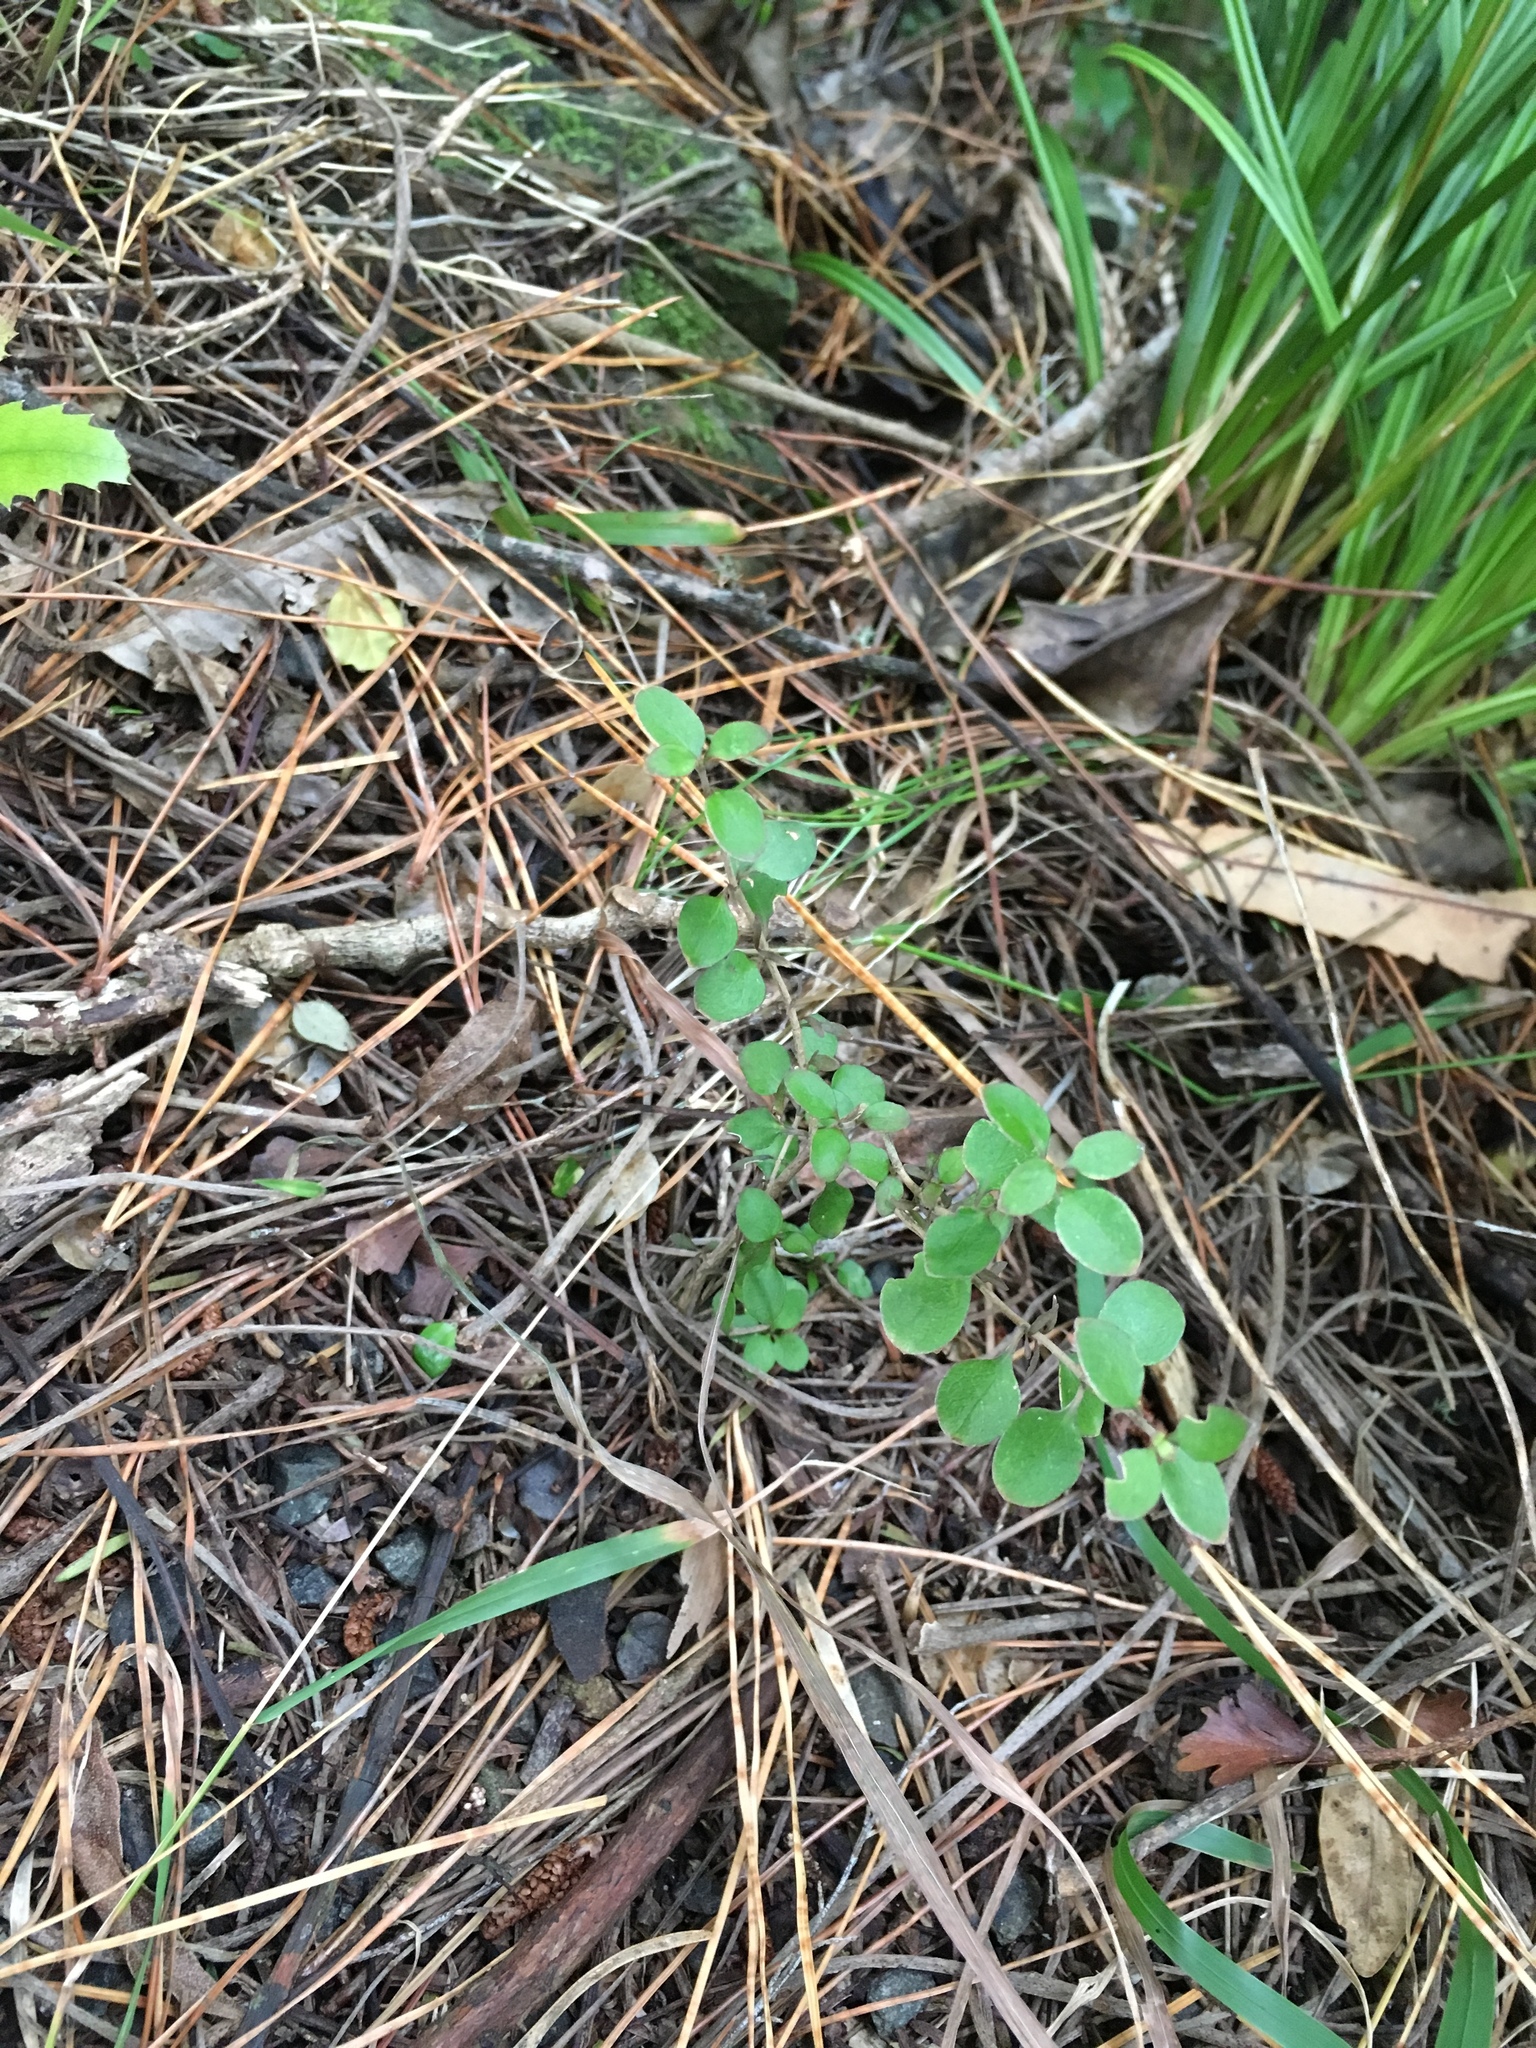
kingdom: Plantae
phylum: Tracheophyta
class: Magnoliopsida
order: Gentianales
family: Rubiaceae
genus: Coprosma
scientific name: Coprosma rhamnoides
